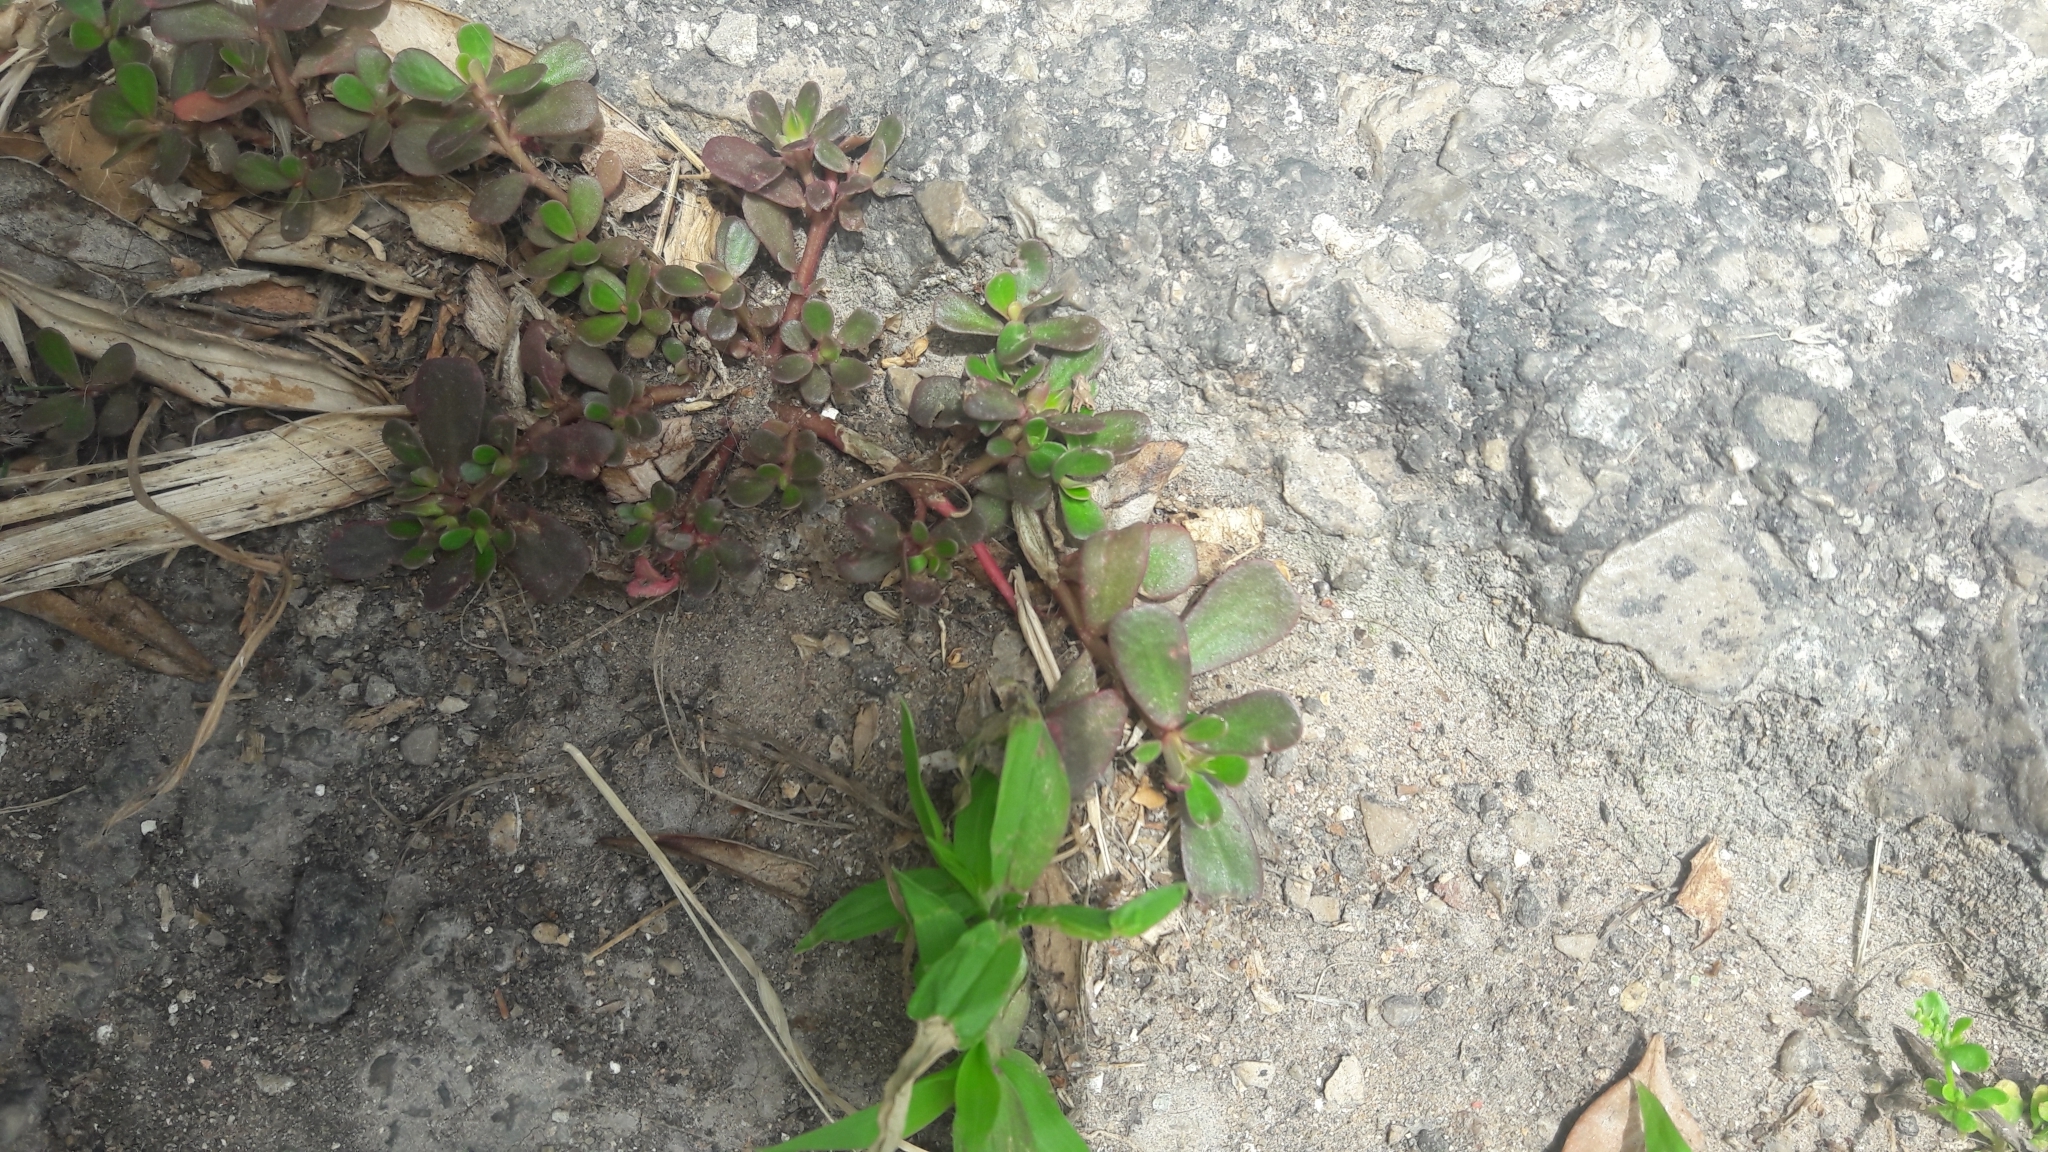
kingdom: Plantae
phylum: Tracheophyta
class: Magnoliopsida
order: Caryophyllales
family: Portulacaceae
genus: Portulaca
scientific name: Portulaca oleracea
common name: Common purslane
